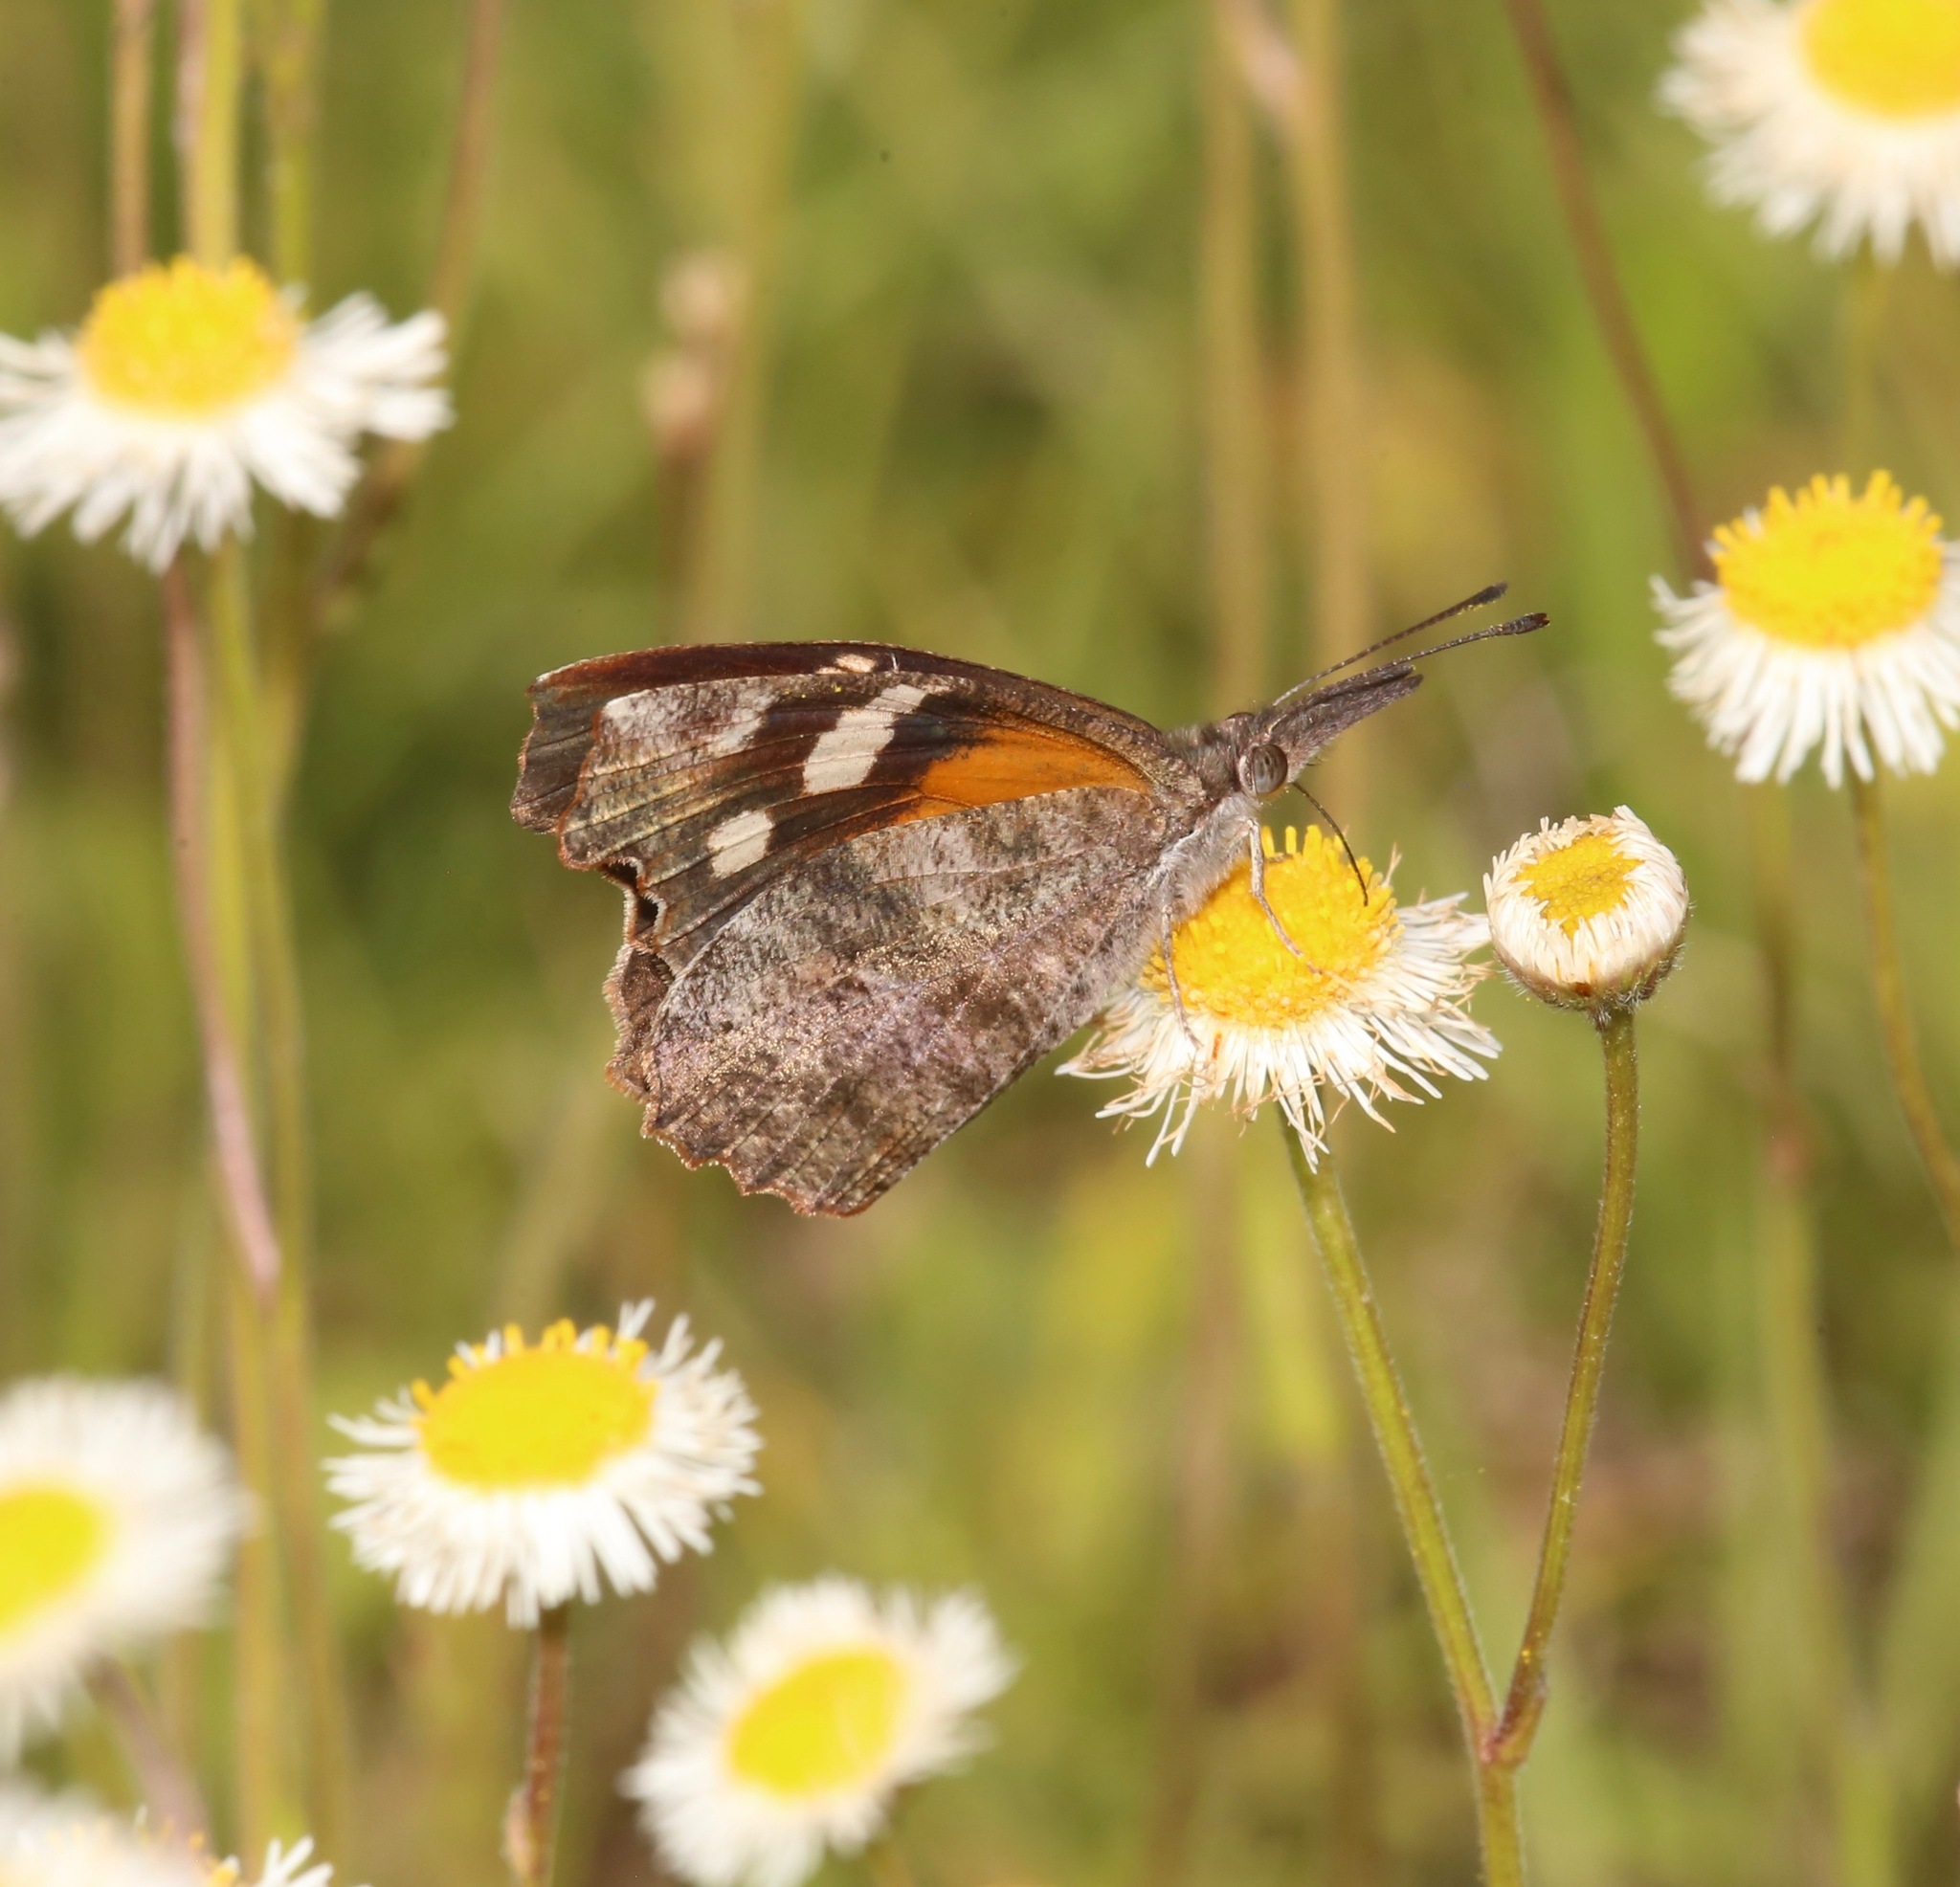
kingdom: Animalia
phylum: Arthropoda
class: Insecta
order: Lepidoptera
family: Nymphalidae
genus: Libytheana
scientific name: Libytheana carinenta
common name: American snout
